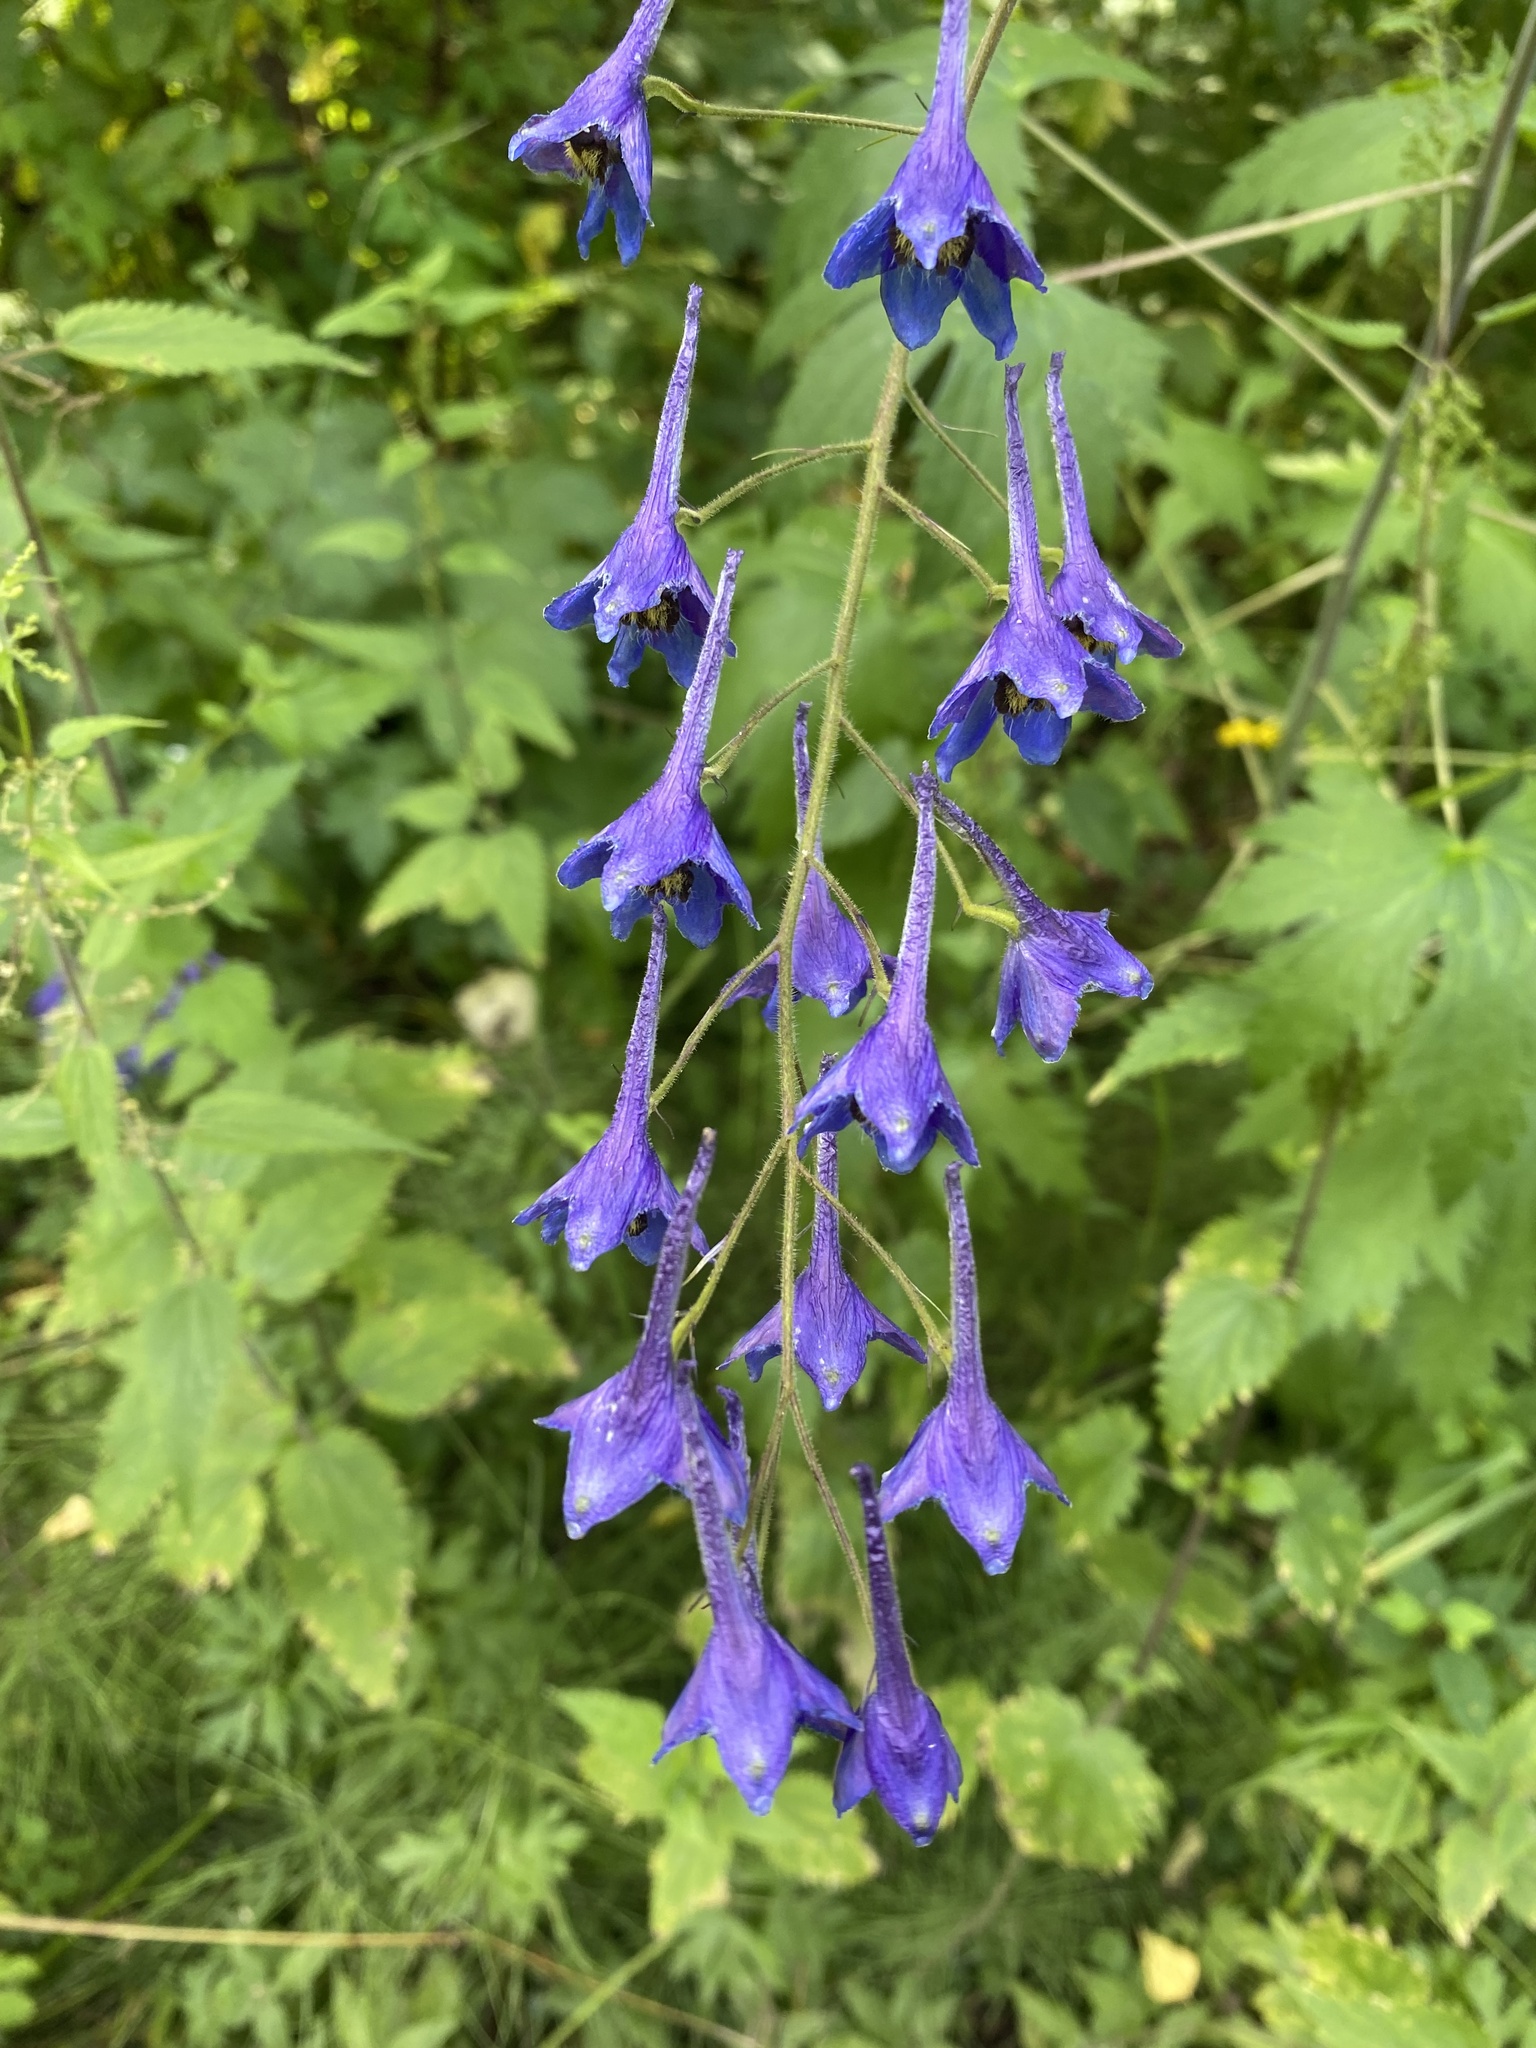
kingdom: Plantae
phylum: Tracheophyta
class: Magnoliopsida
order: Ranunculales
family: Ranunculaceae
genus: Delphinium
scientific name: Delphinium elatum
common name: Candle larkspur
